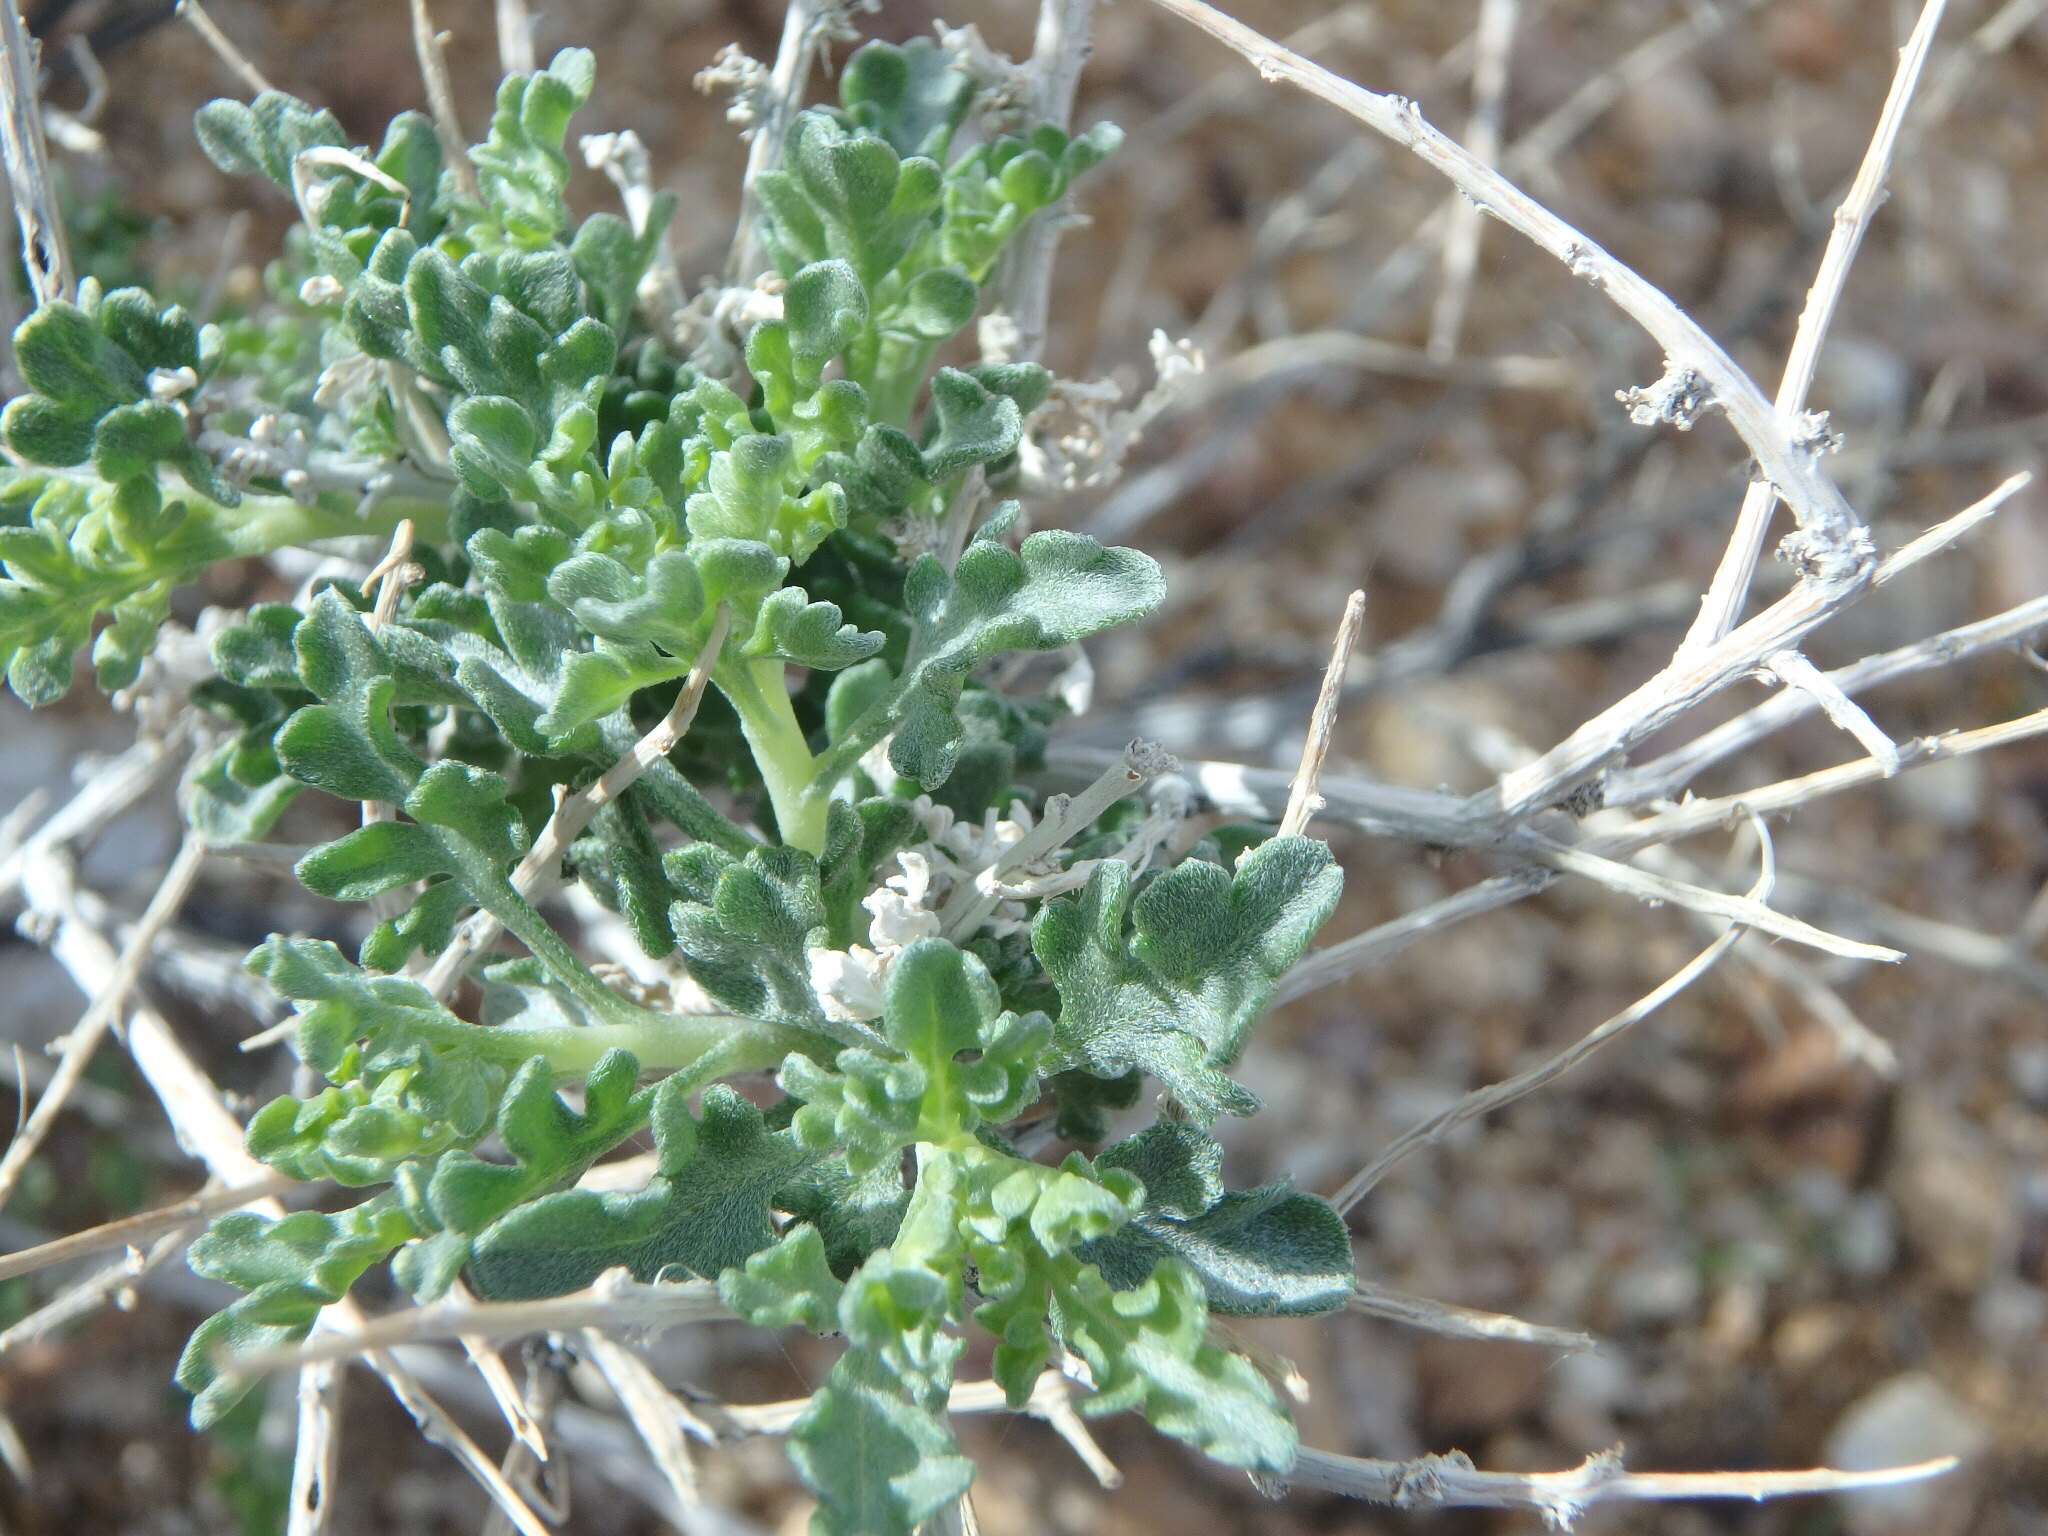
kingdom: Plantae
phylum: Tracheophyta
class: Magnoliopsida
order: Asterales
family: Asteraceae
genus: Ambrosia
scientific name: Ambrosia dumosa
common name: Bur-sage
